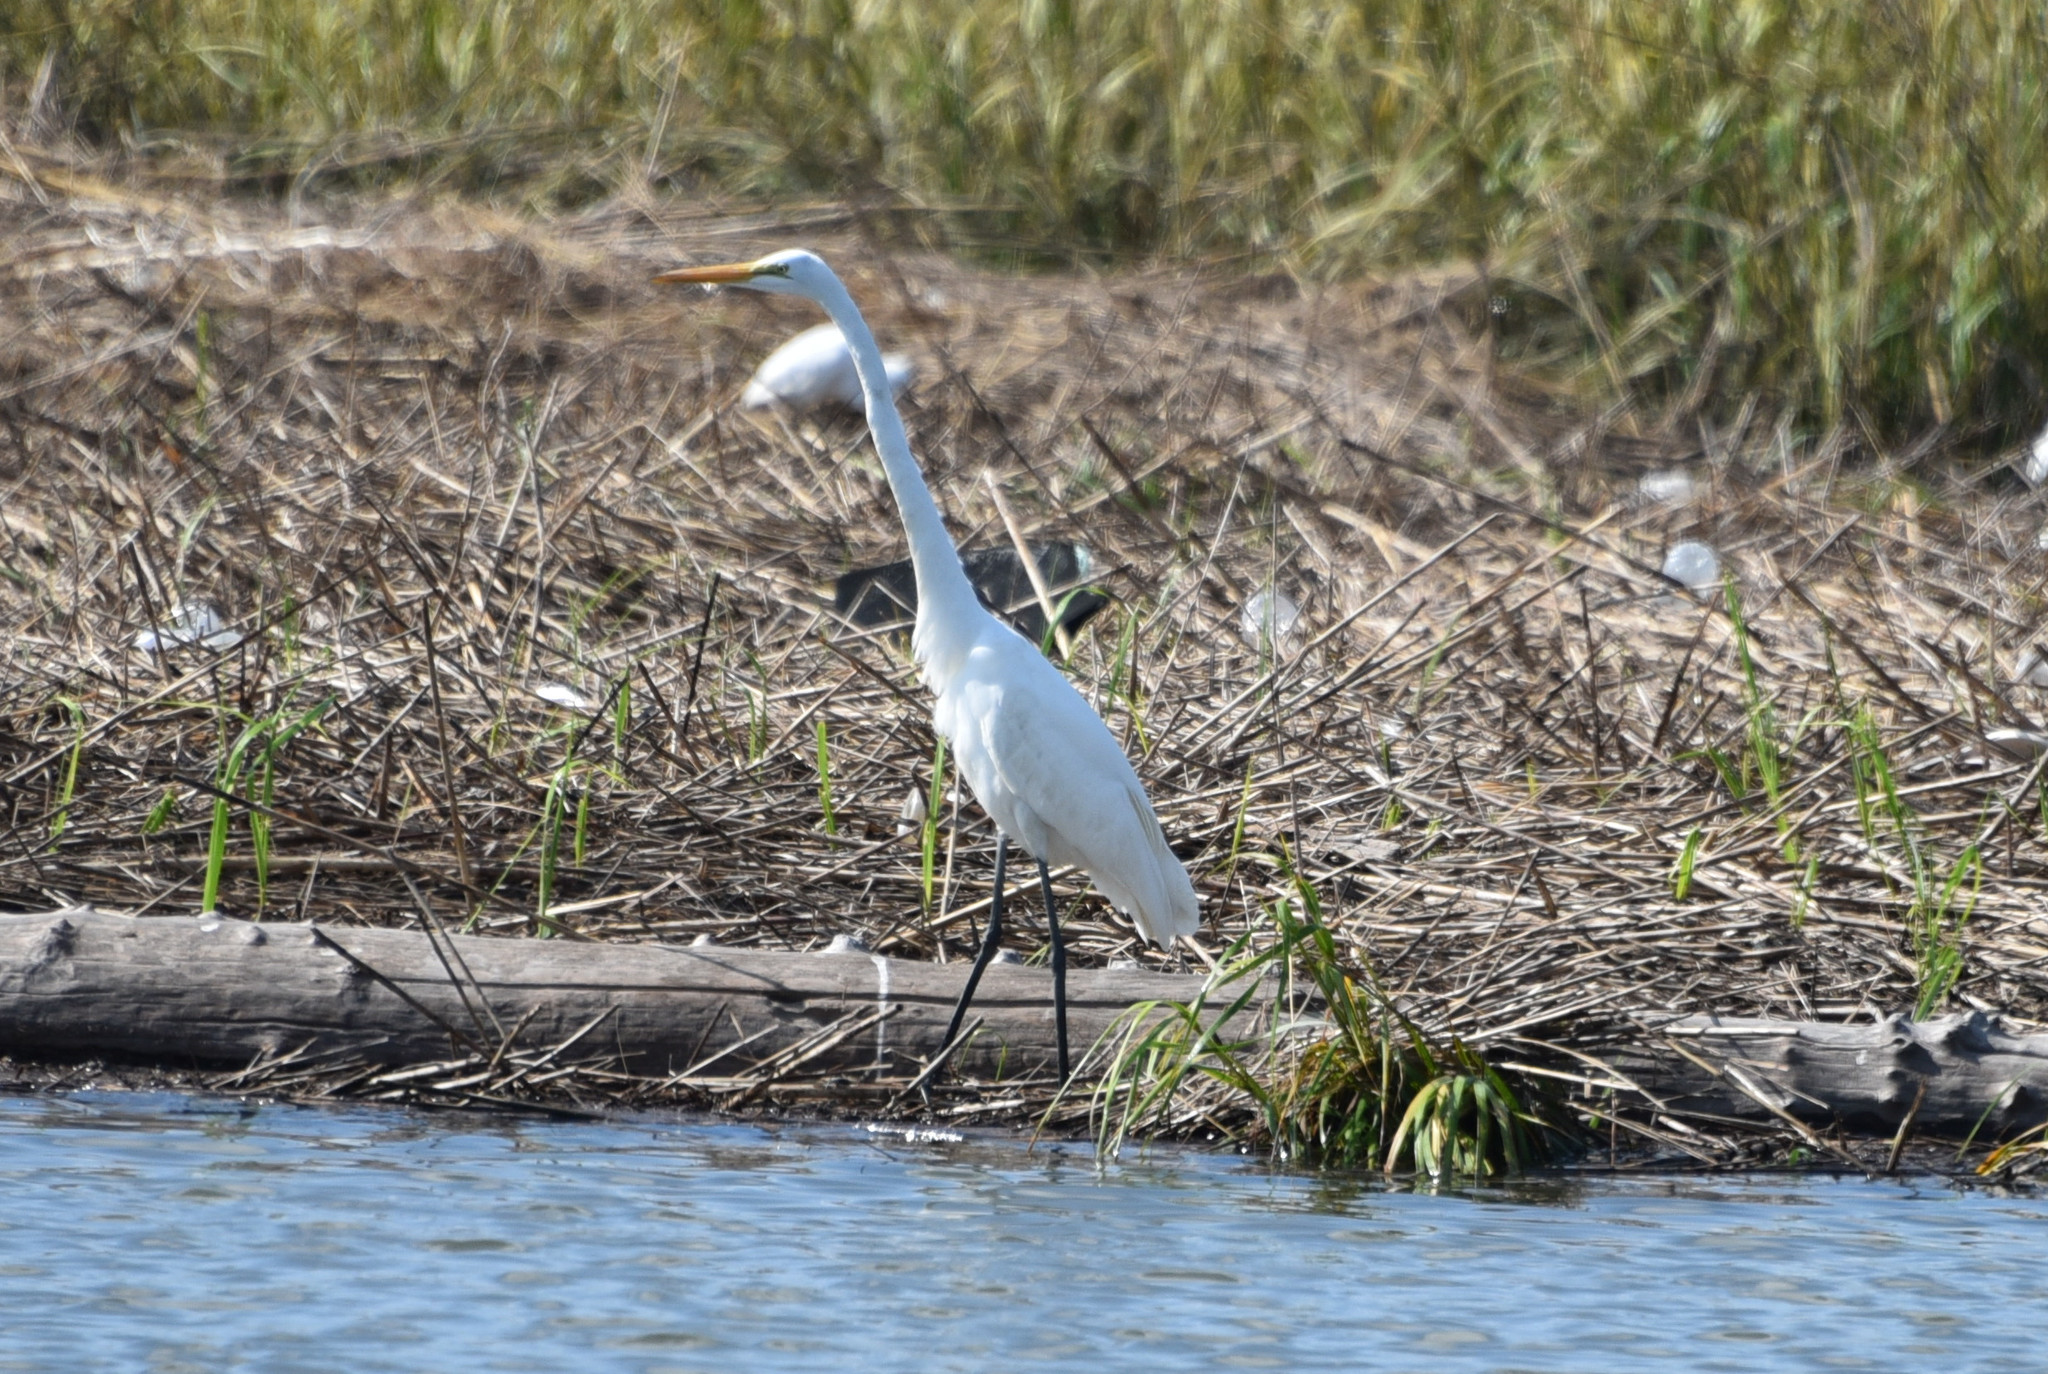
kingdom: Animalia
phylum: Chordata
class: Aves
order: Pelecaniformes
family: Ardeidae
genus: Ardea
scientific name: Ardea alba
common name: Great egret
